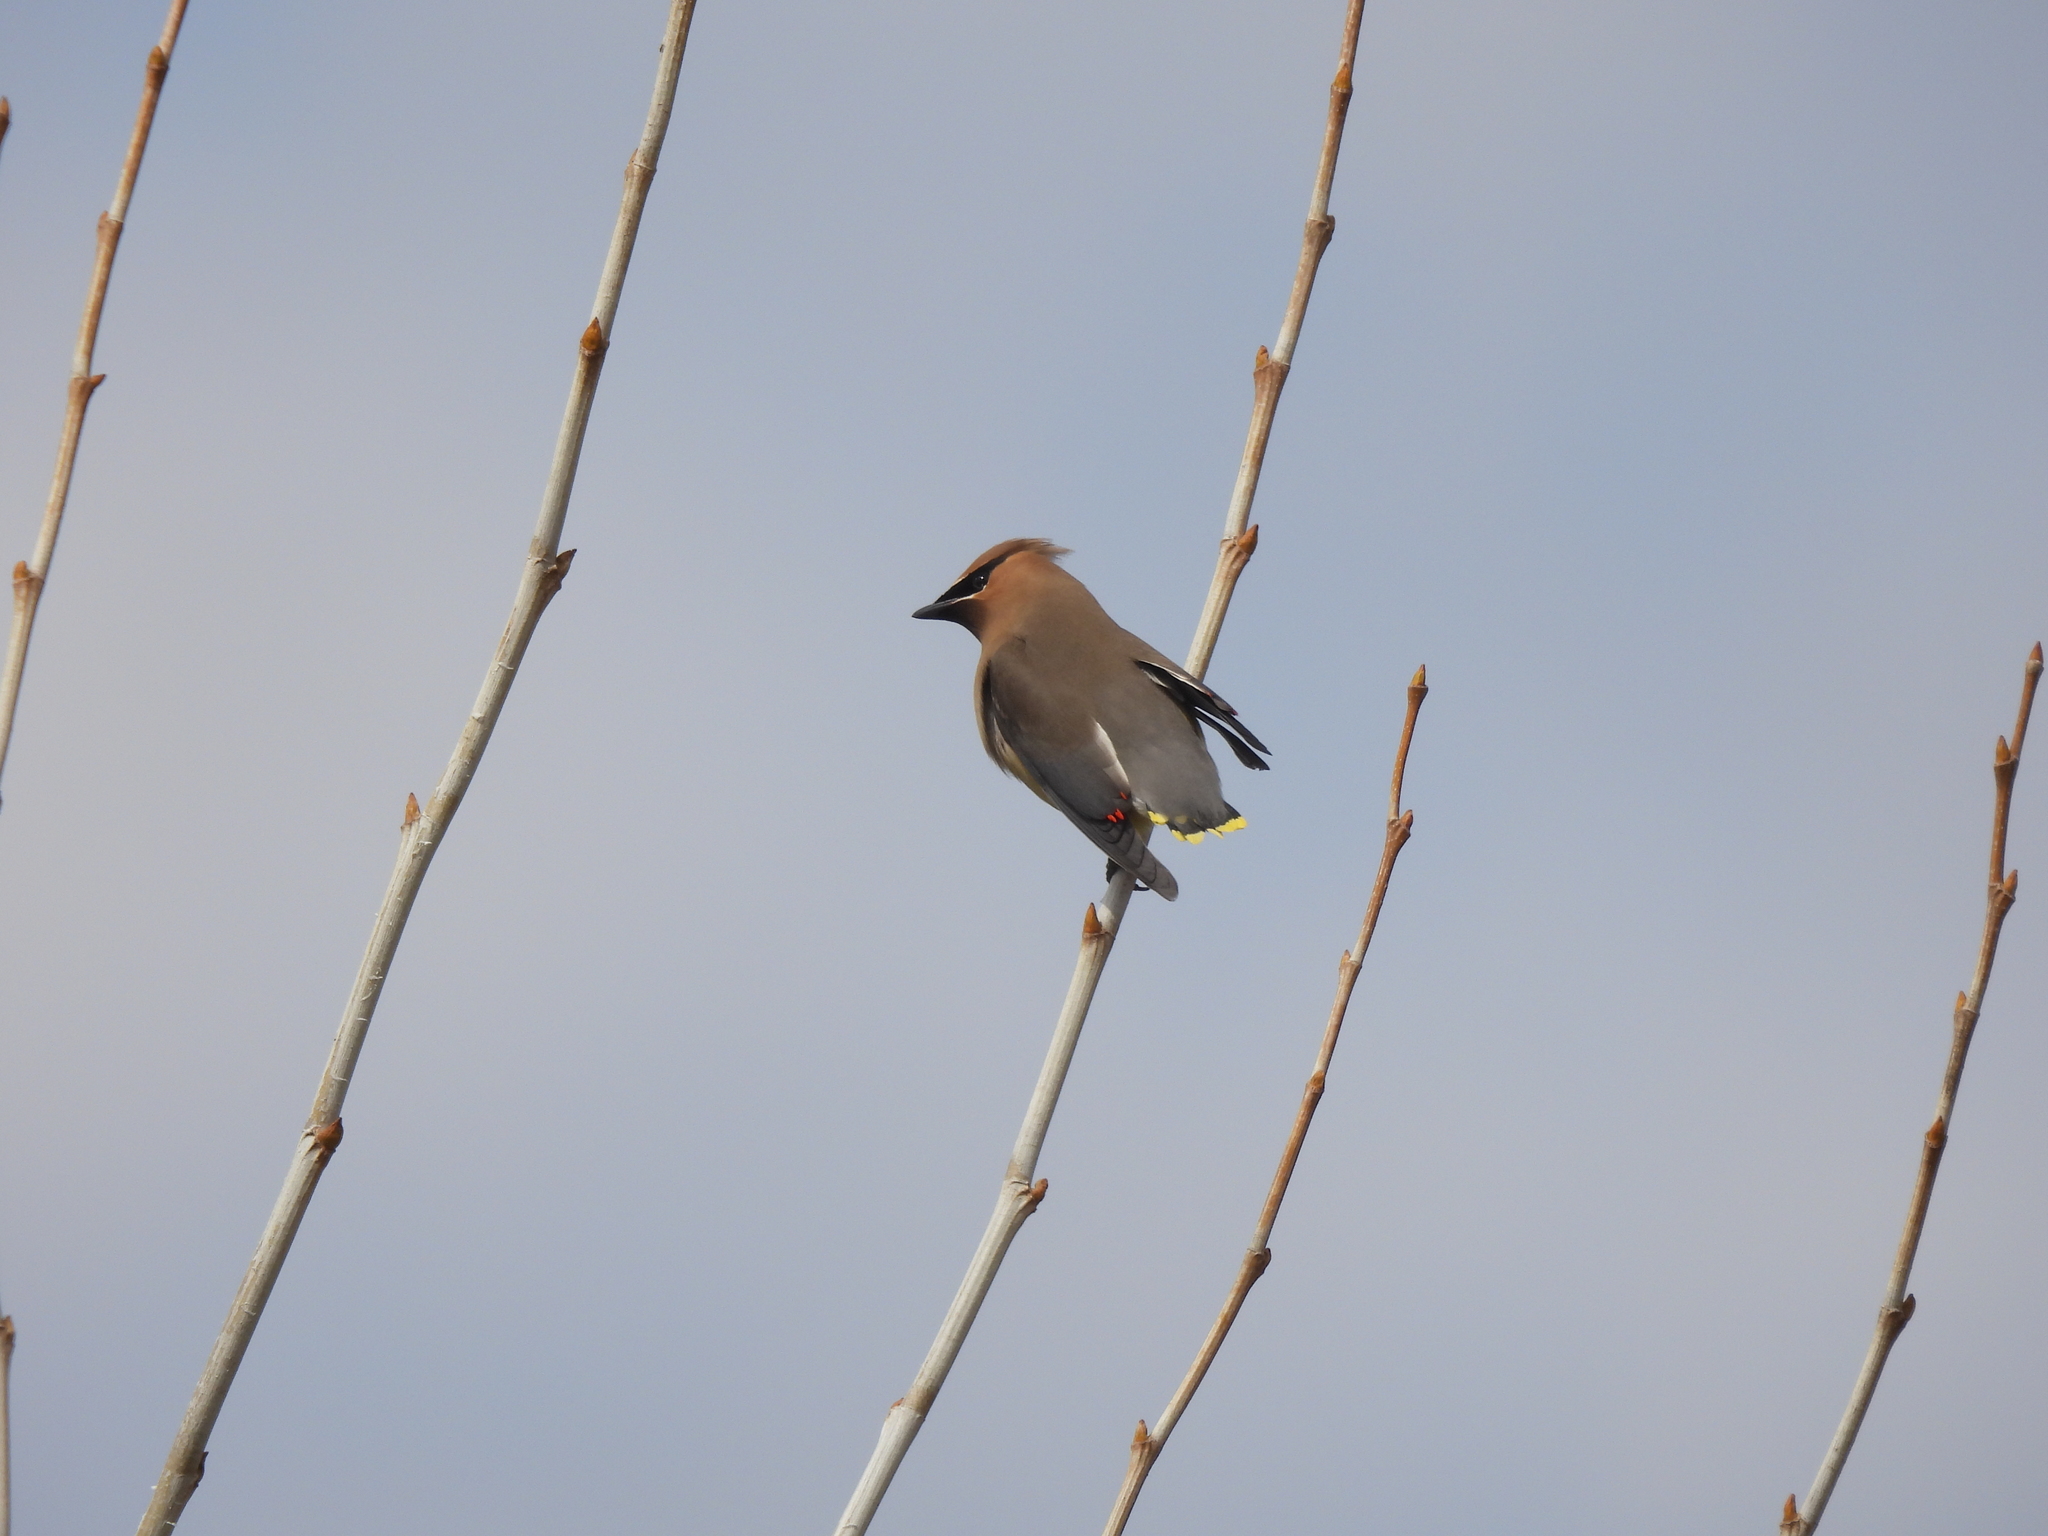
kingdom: Animalia
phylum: Chordata
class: Aves
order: Passeriformes
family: Bombycillidae
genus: Bombycilla
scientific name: Bombycilla cedrorum
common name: Cedar waxwing
